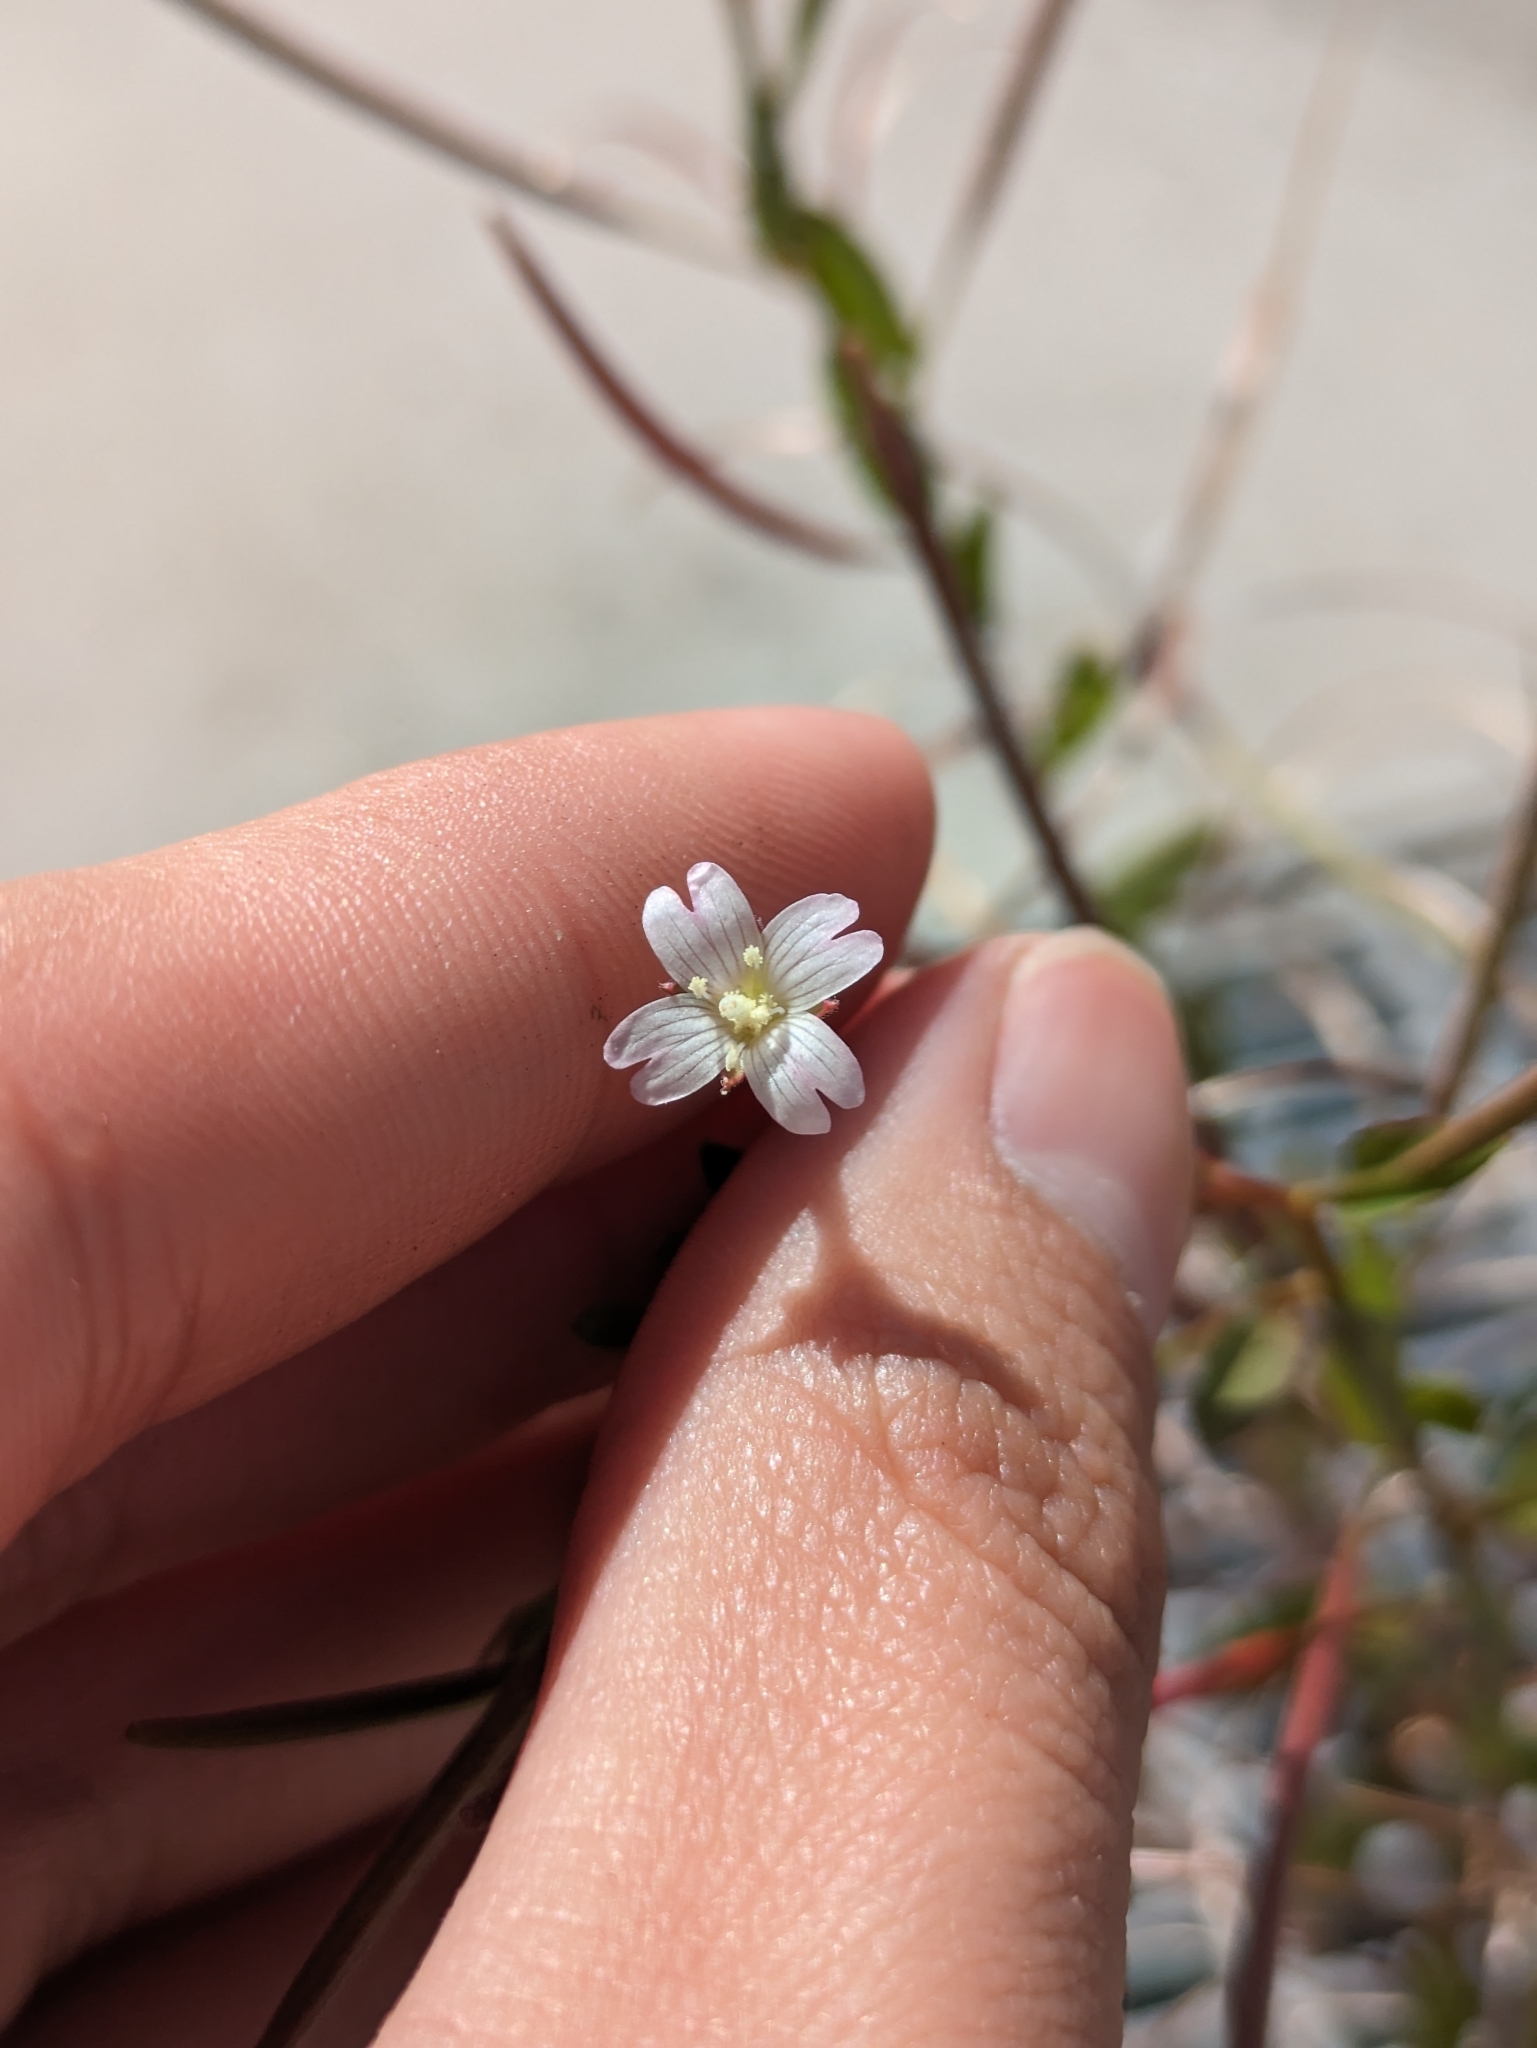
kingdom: Plantae
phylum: Tracheophyta
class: Magnoliopsida
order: Myrtales
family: Onagraceae
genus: Epilobium
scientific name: Epilobium ciliatum
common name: American willowherb
